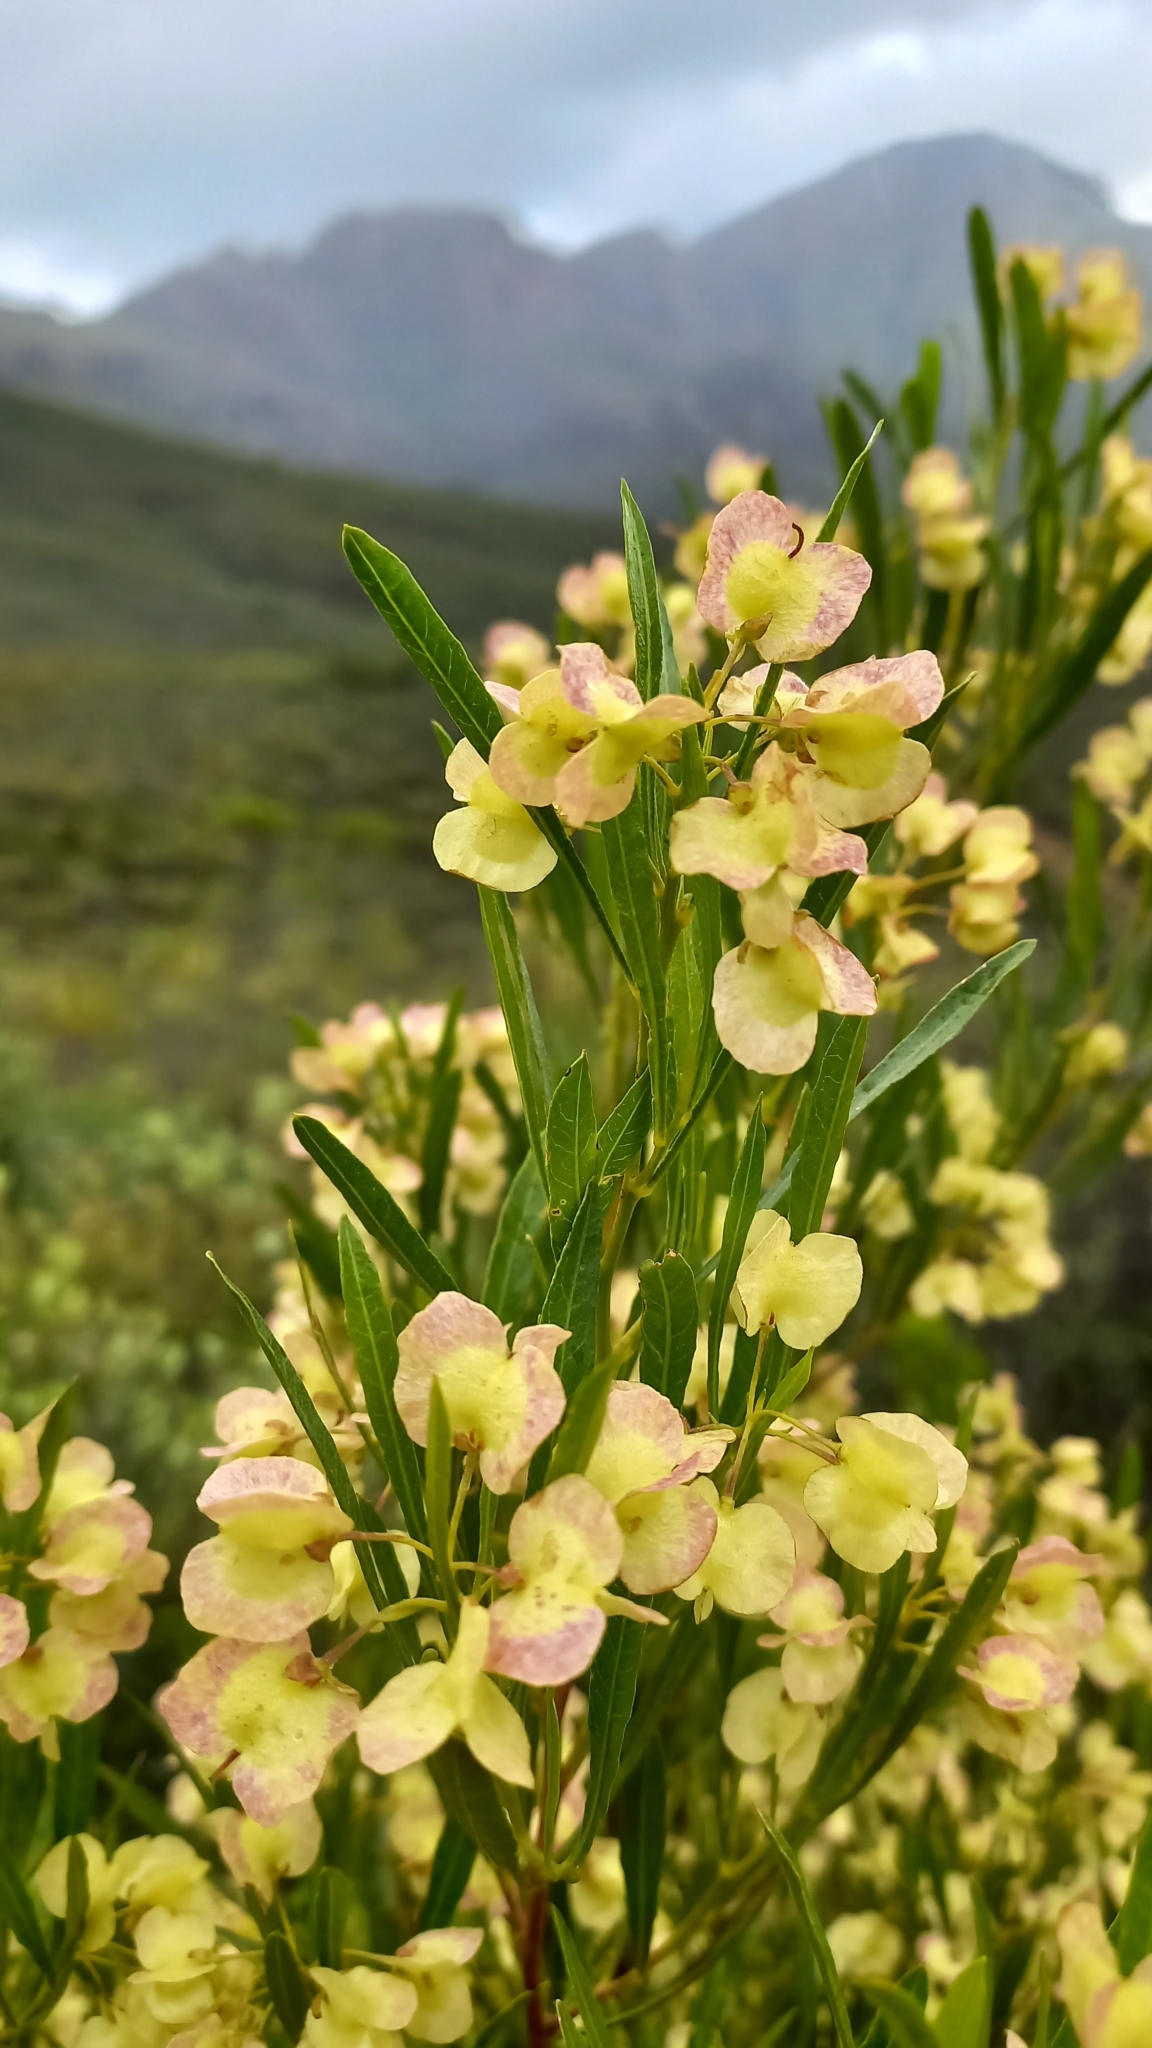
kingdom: Plantae
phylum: Tracheophyta
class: Magnoliopsida
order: Sapindales
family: Sapindaceae
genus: Dodonaea
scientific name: Dodonaea viscosa
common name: Hopbush
